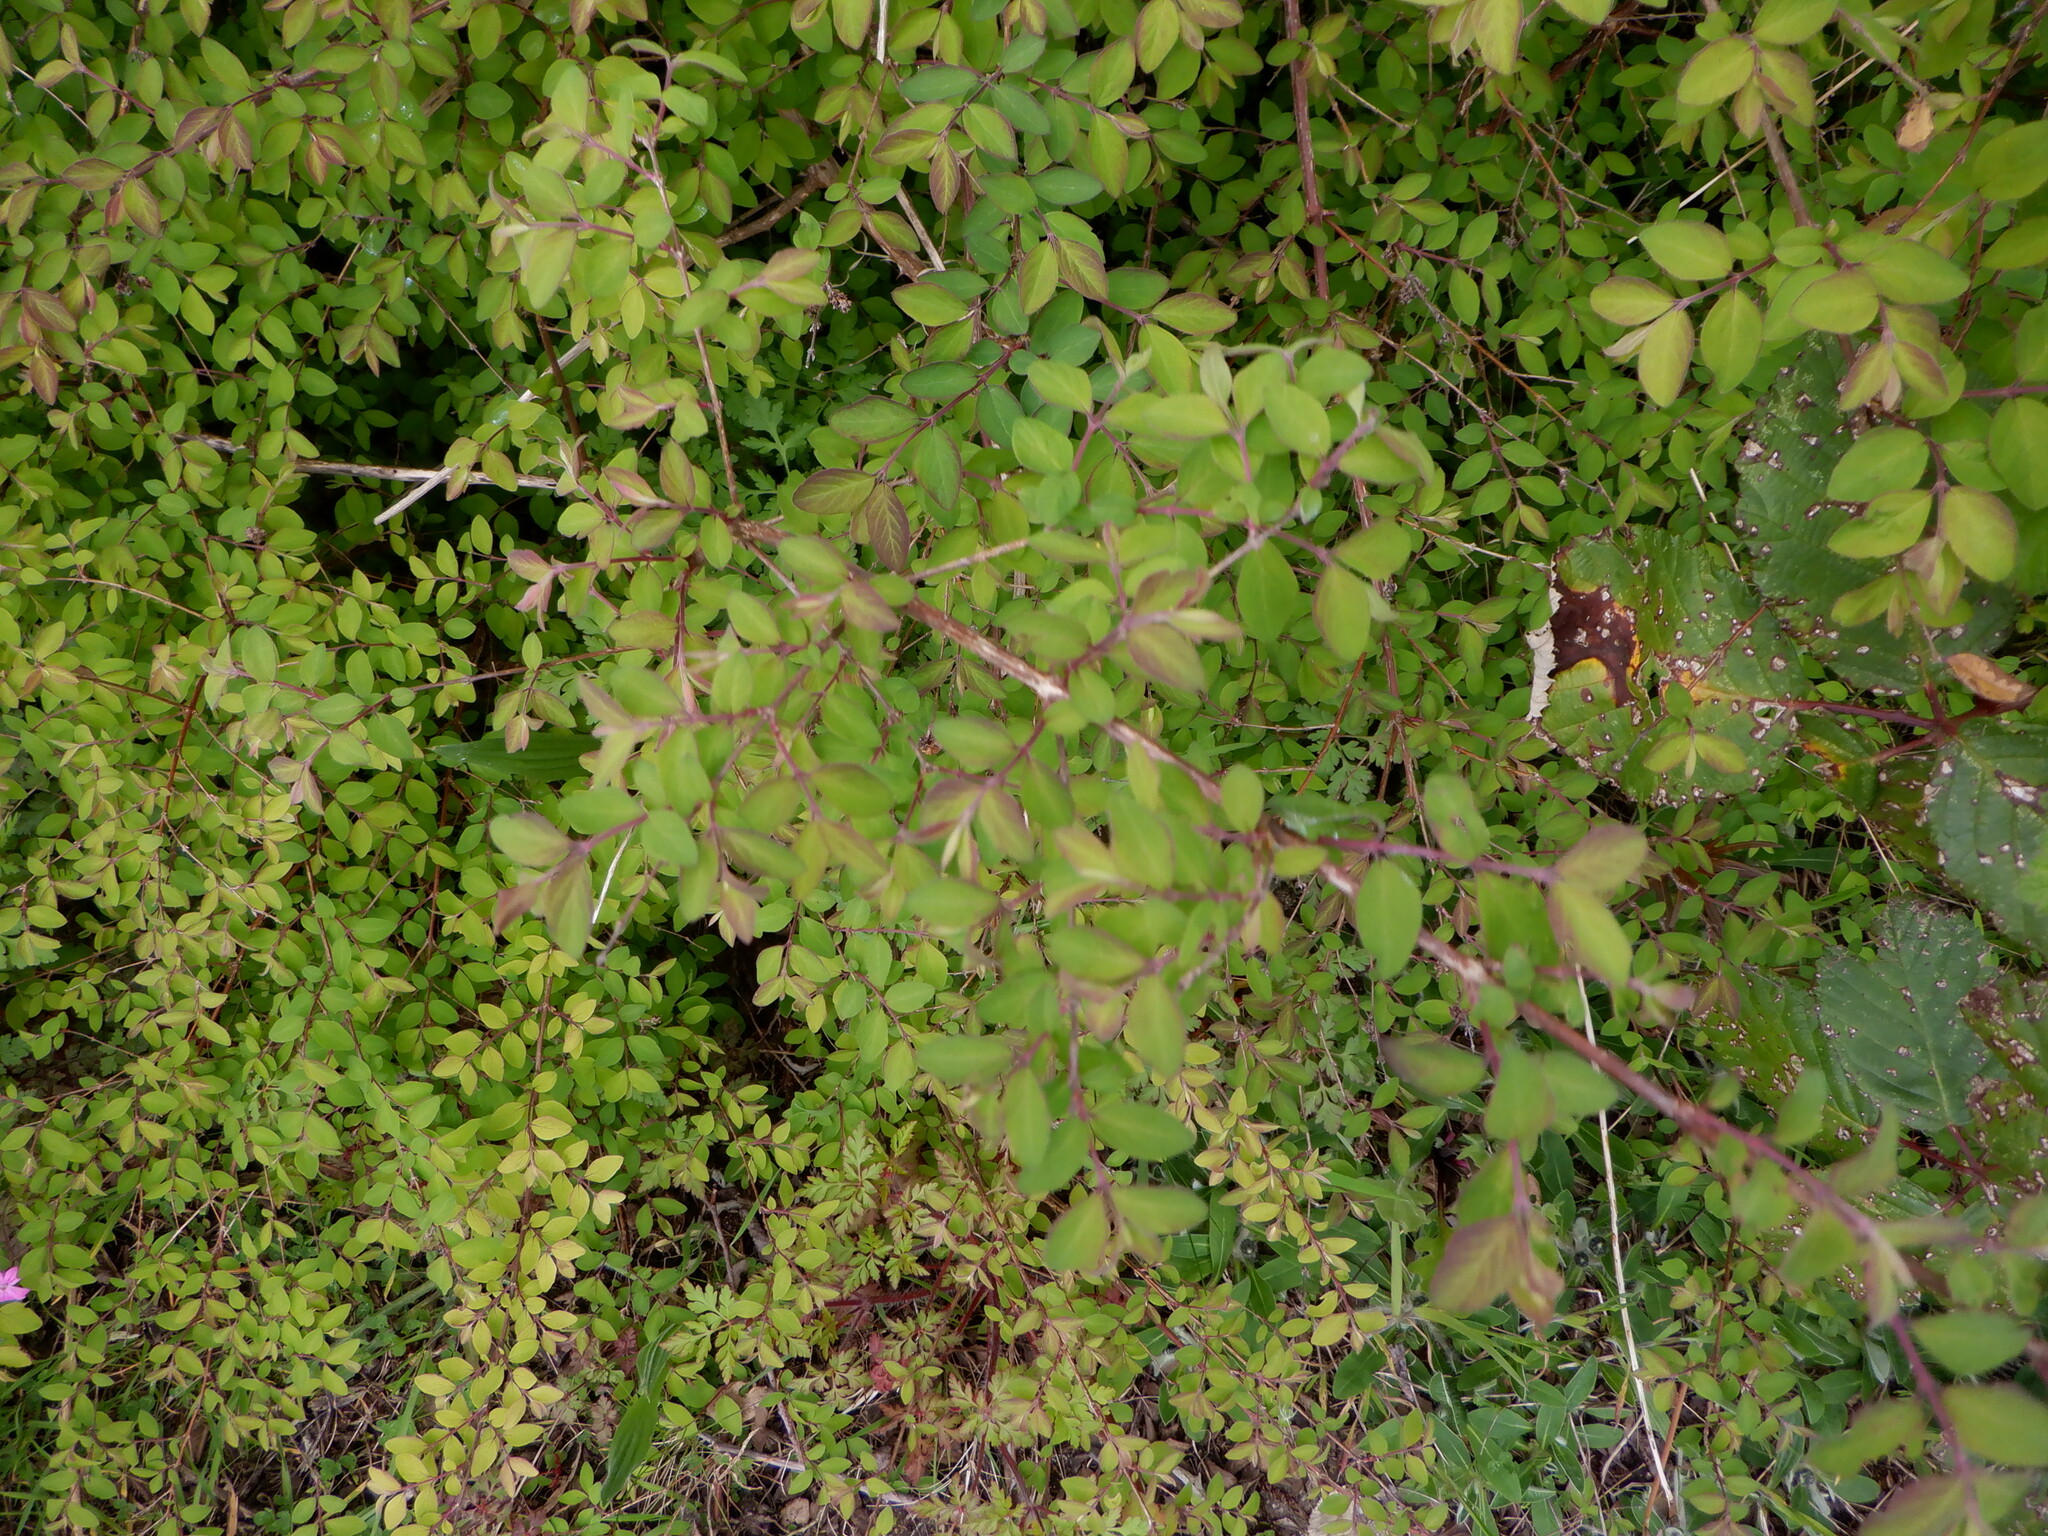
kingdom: Plantae
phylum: Tracheophyta
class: Magnoliopsida
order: Dipsacales
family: Caprifoliaceae
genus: Symphoricarpos
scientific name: Symphoricarpos albus
